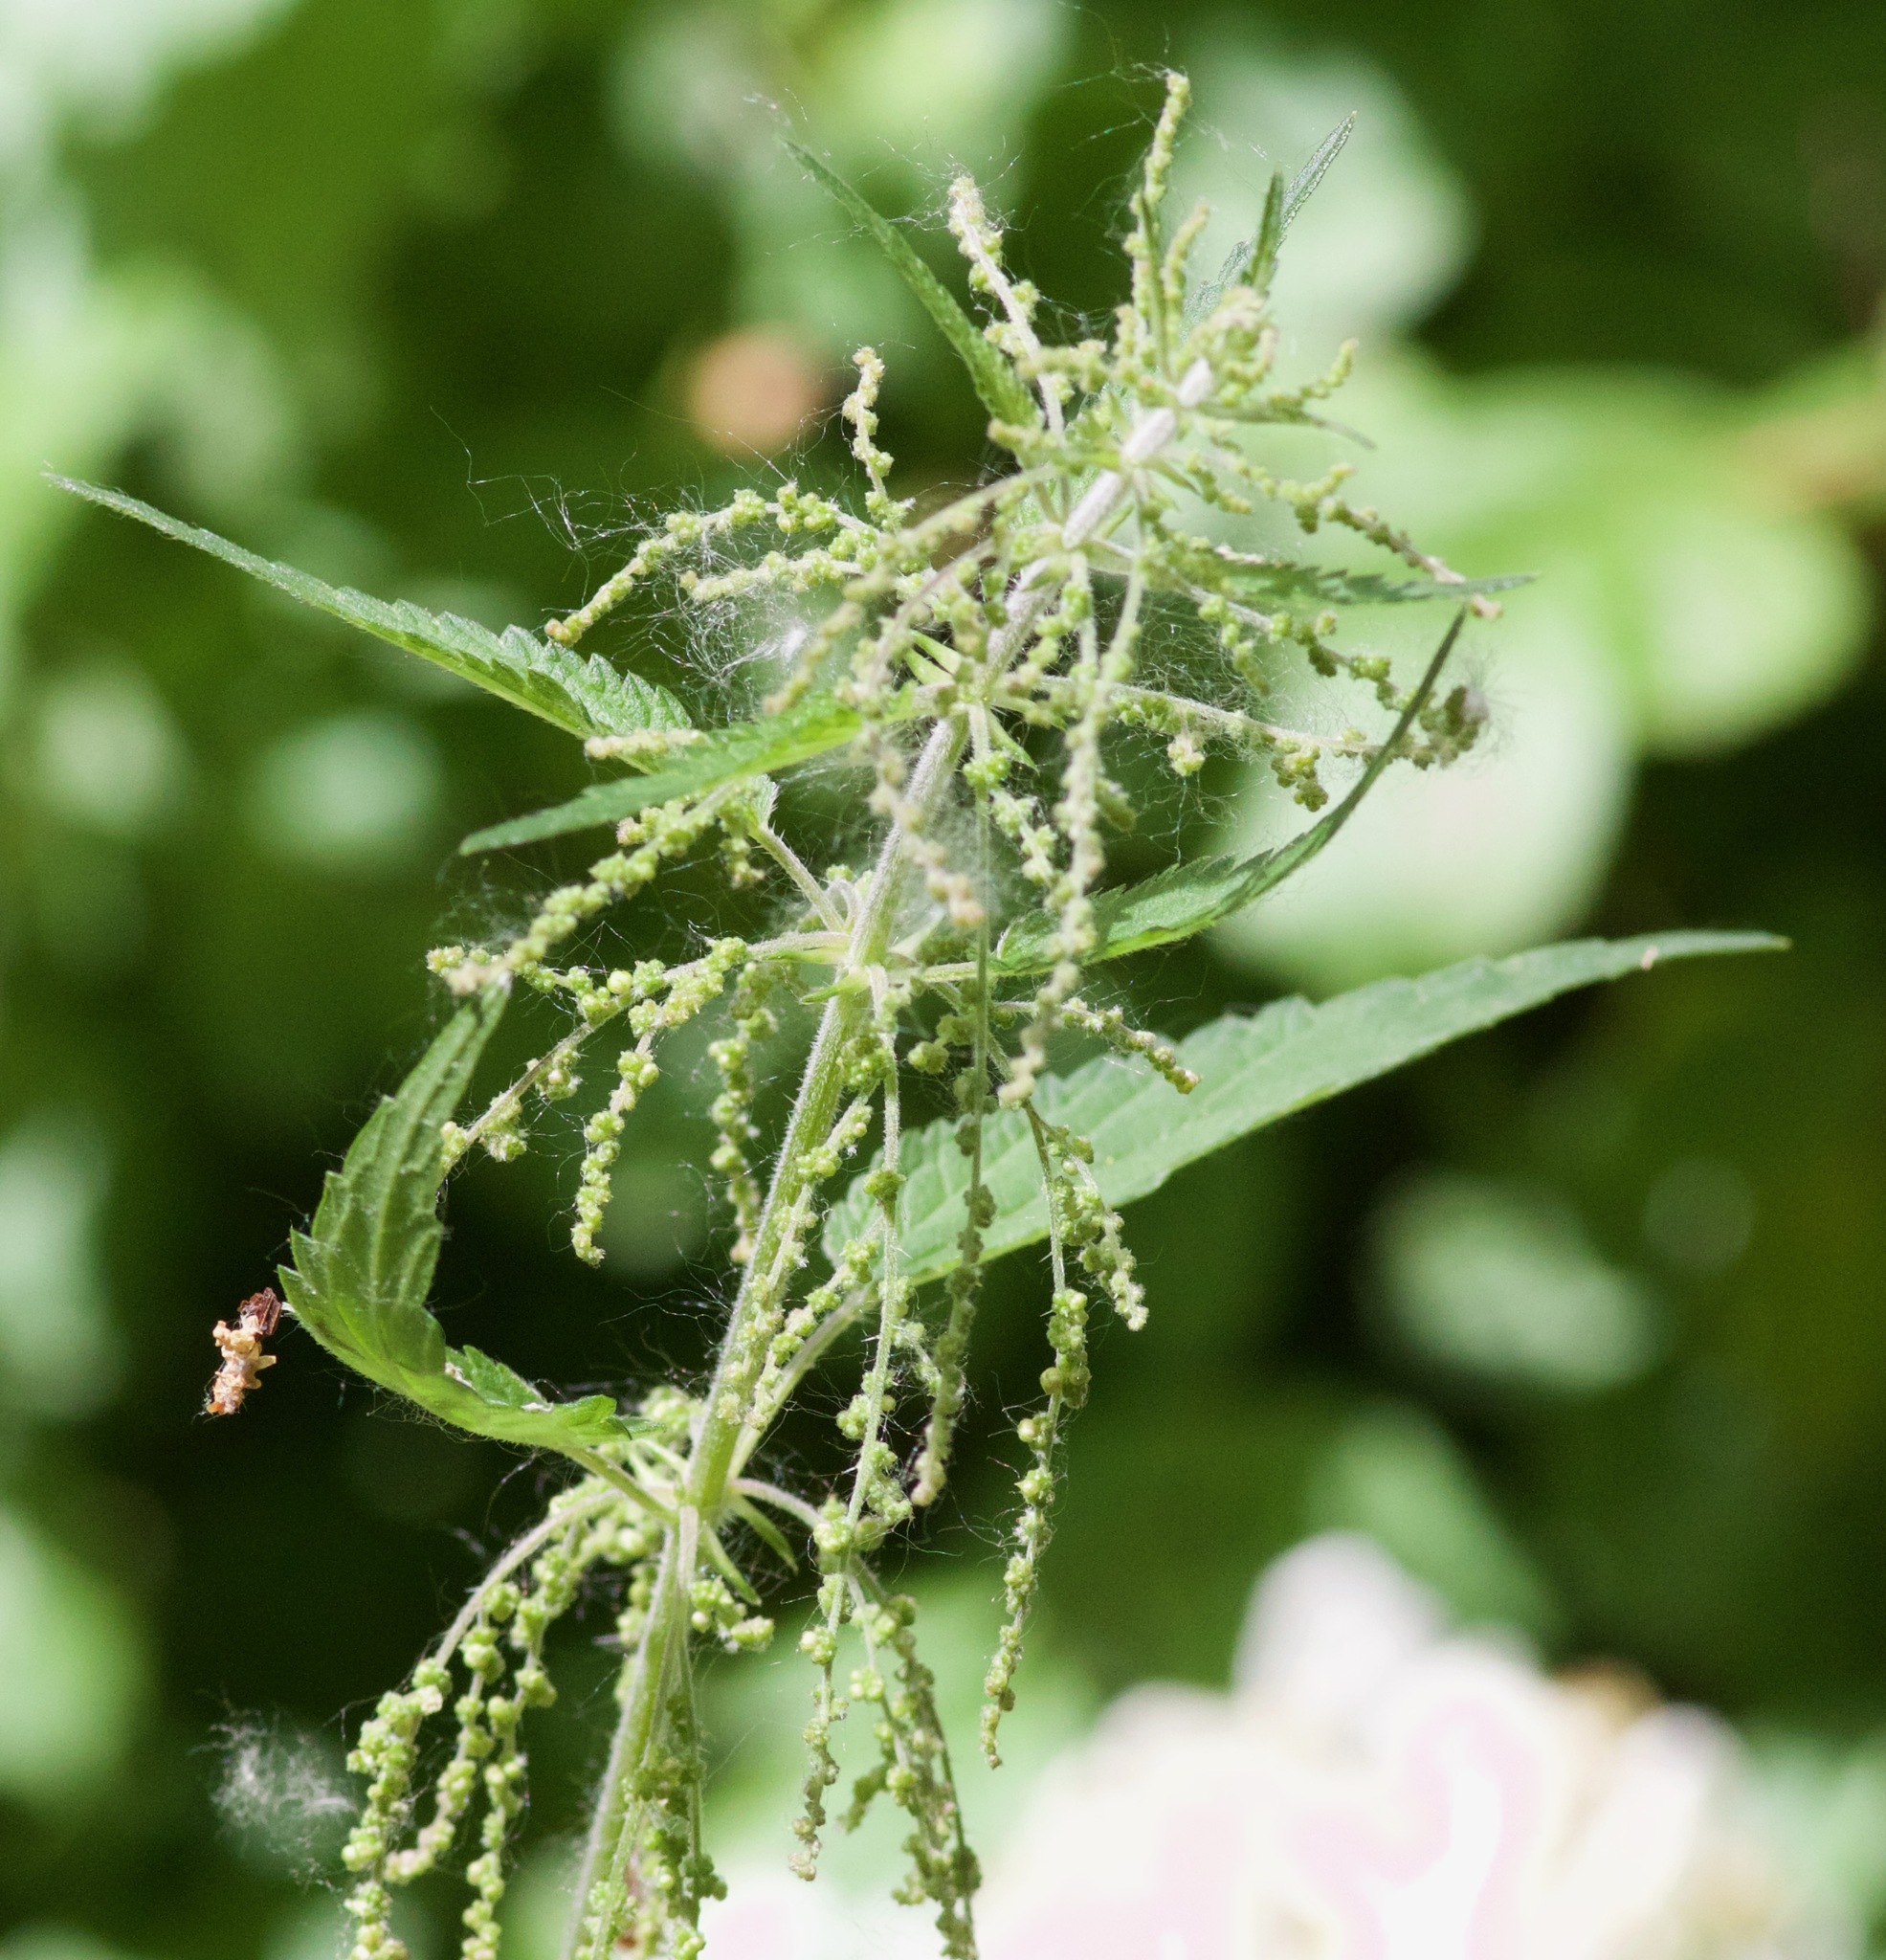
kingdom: Plantae
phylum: Tracheophyta
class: Magnoliopsida
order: Rosales
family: Urticaceae
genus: Urtica
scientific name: Urtica dioica
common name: Common nettle
